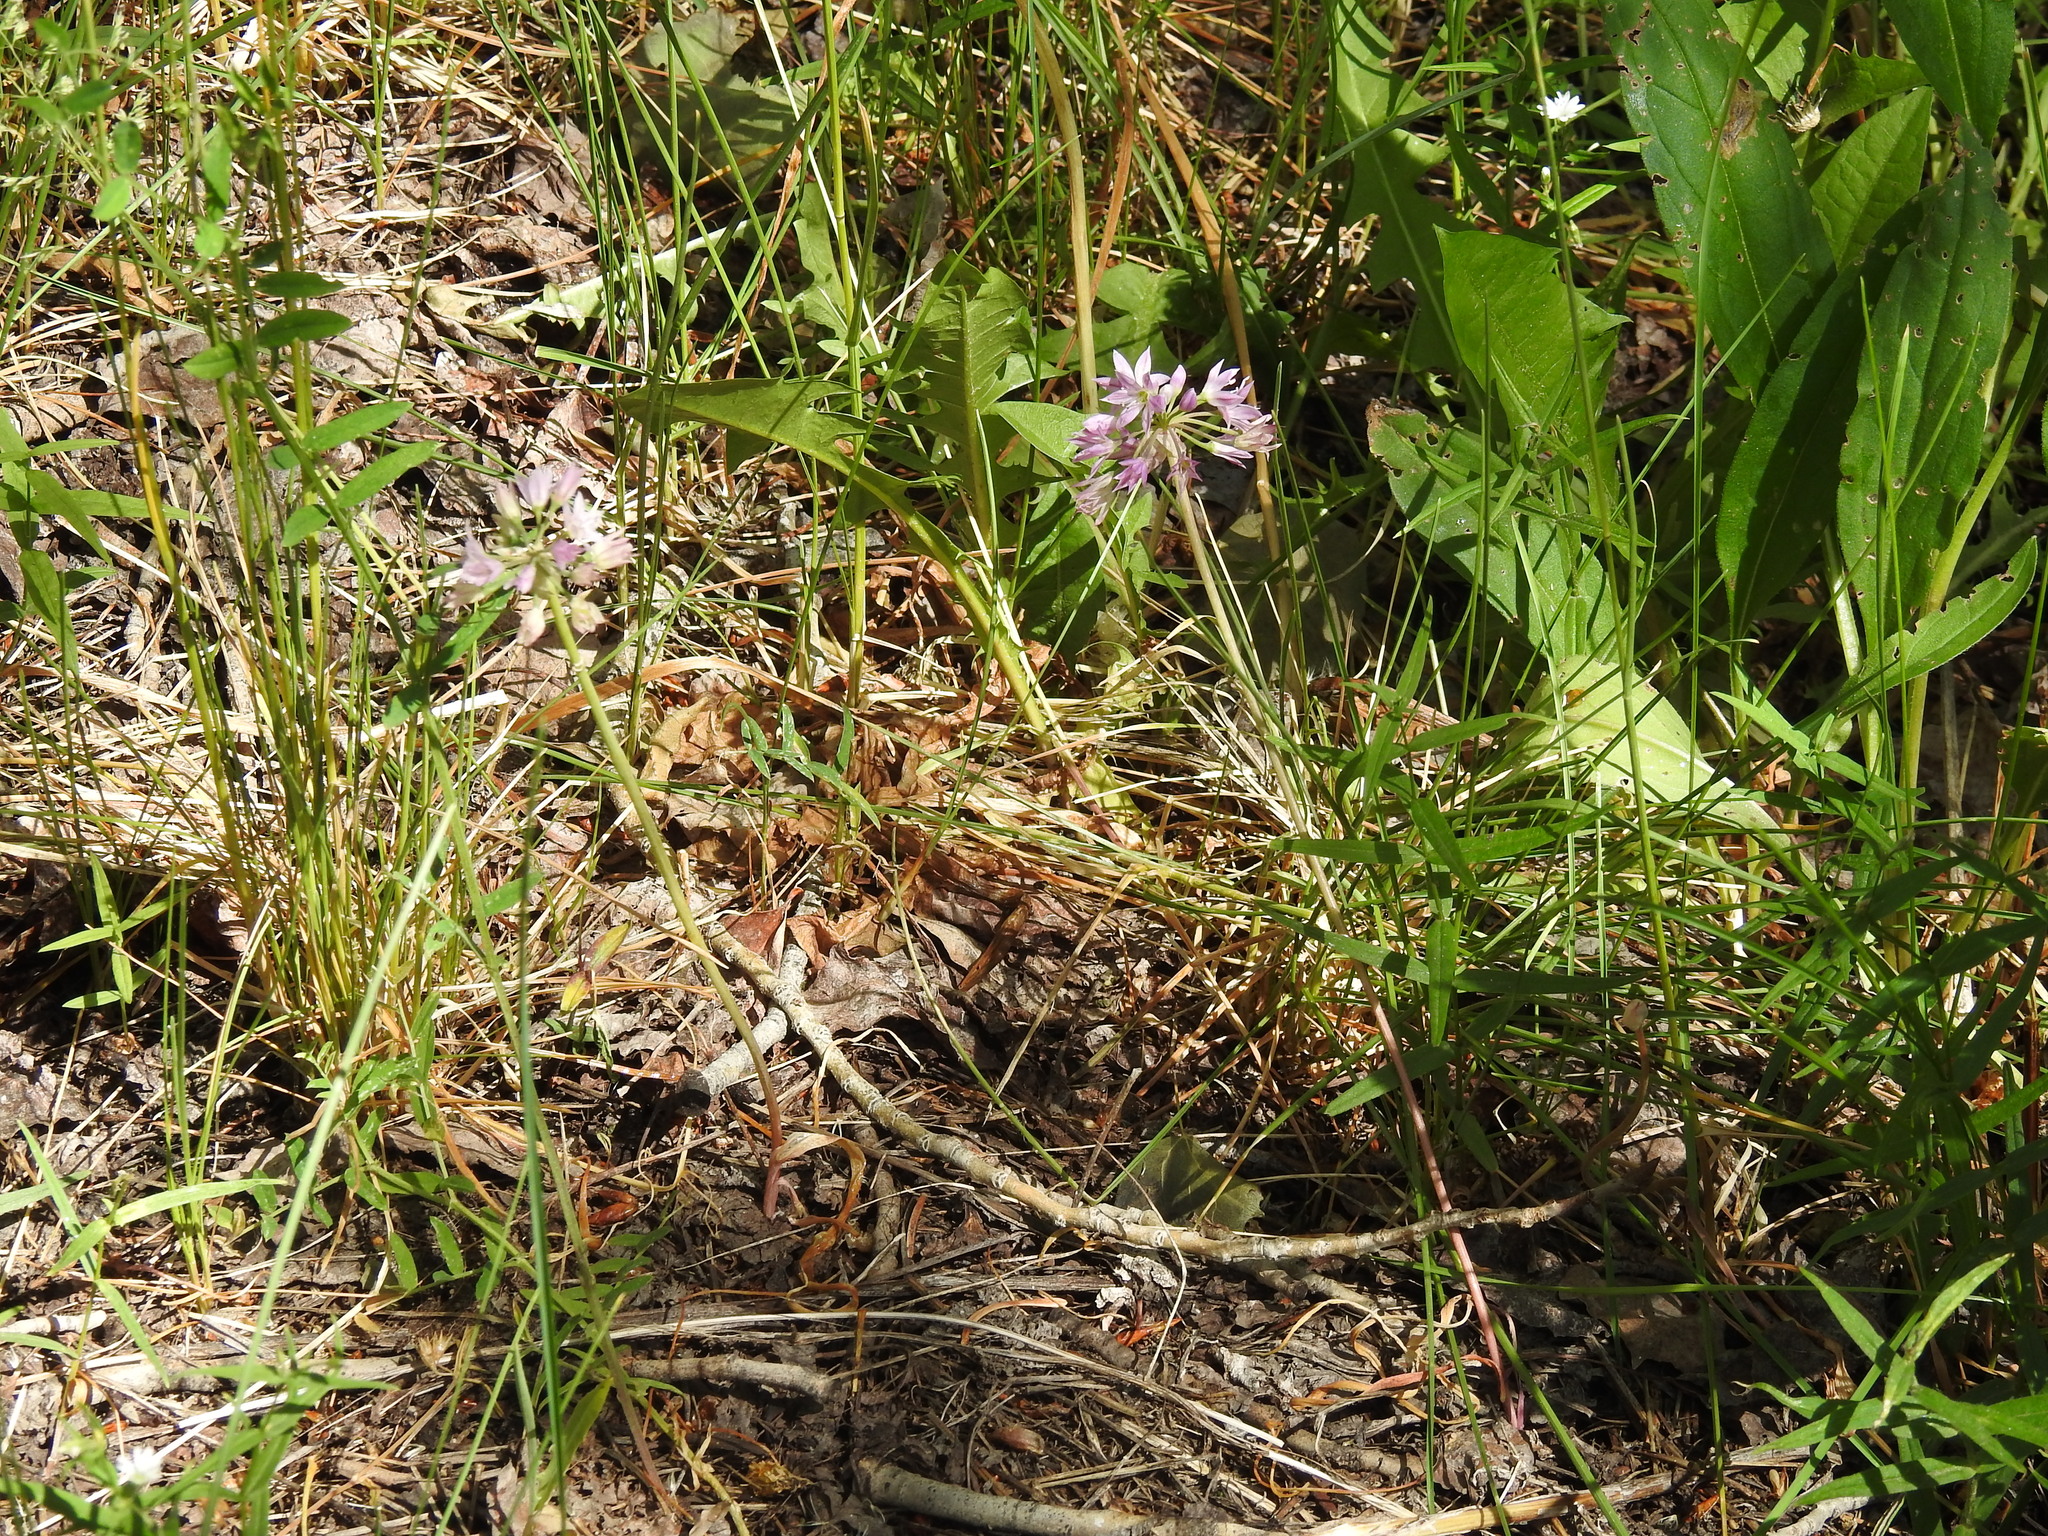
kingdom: Plantae
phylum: Tracheophyta
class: Liliopsida
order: Asparagales
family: Amaryllidaceae
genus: Allium
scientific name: Allium bisceptrum
